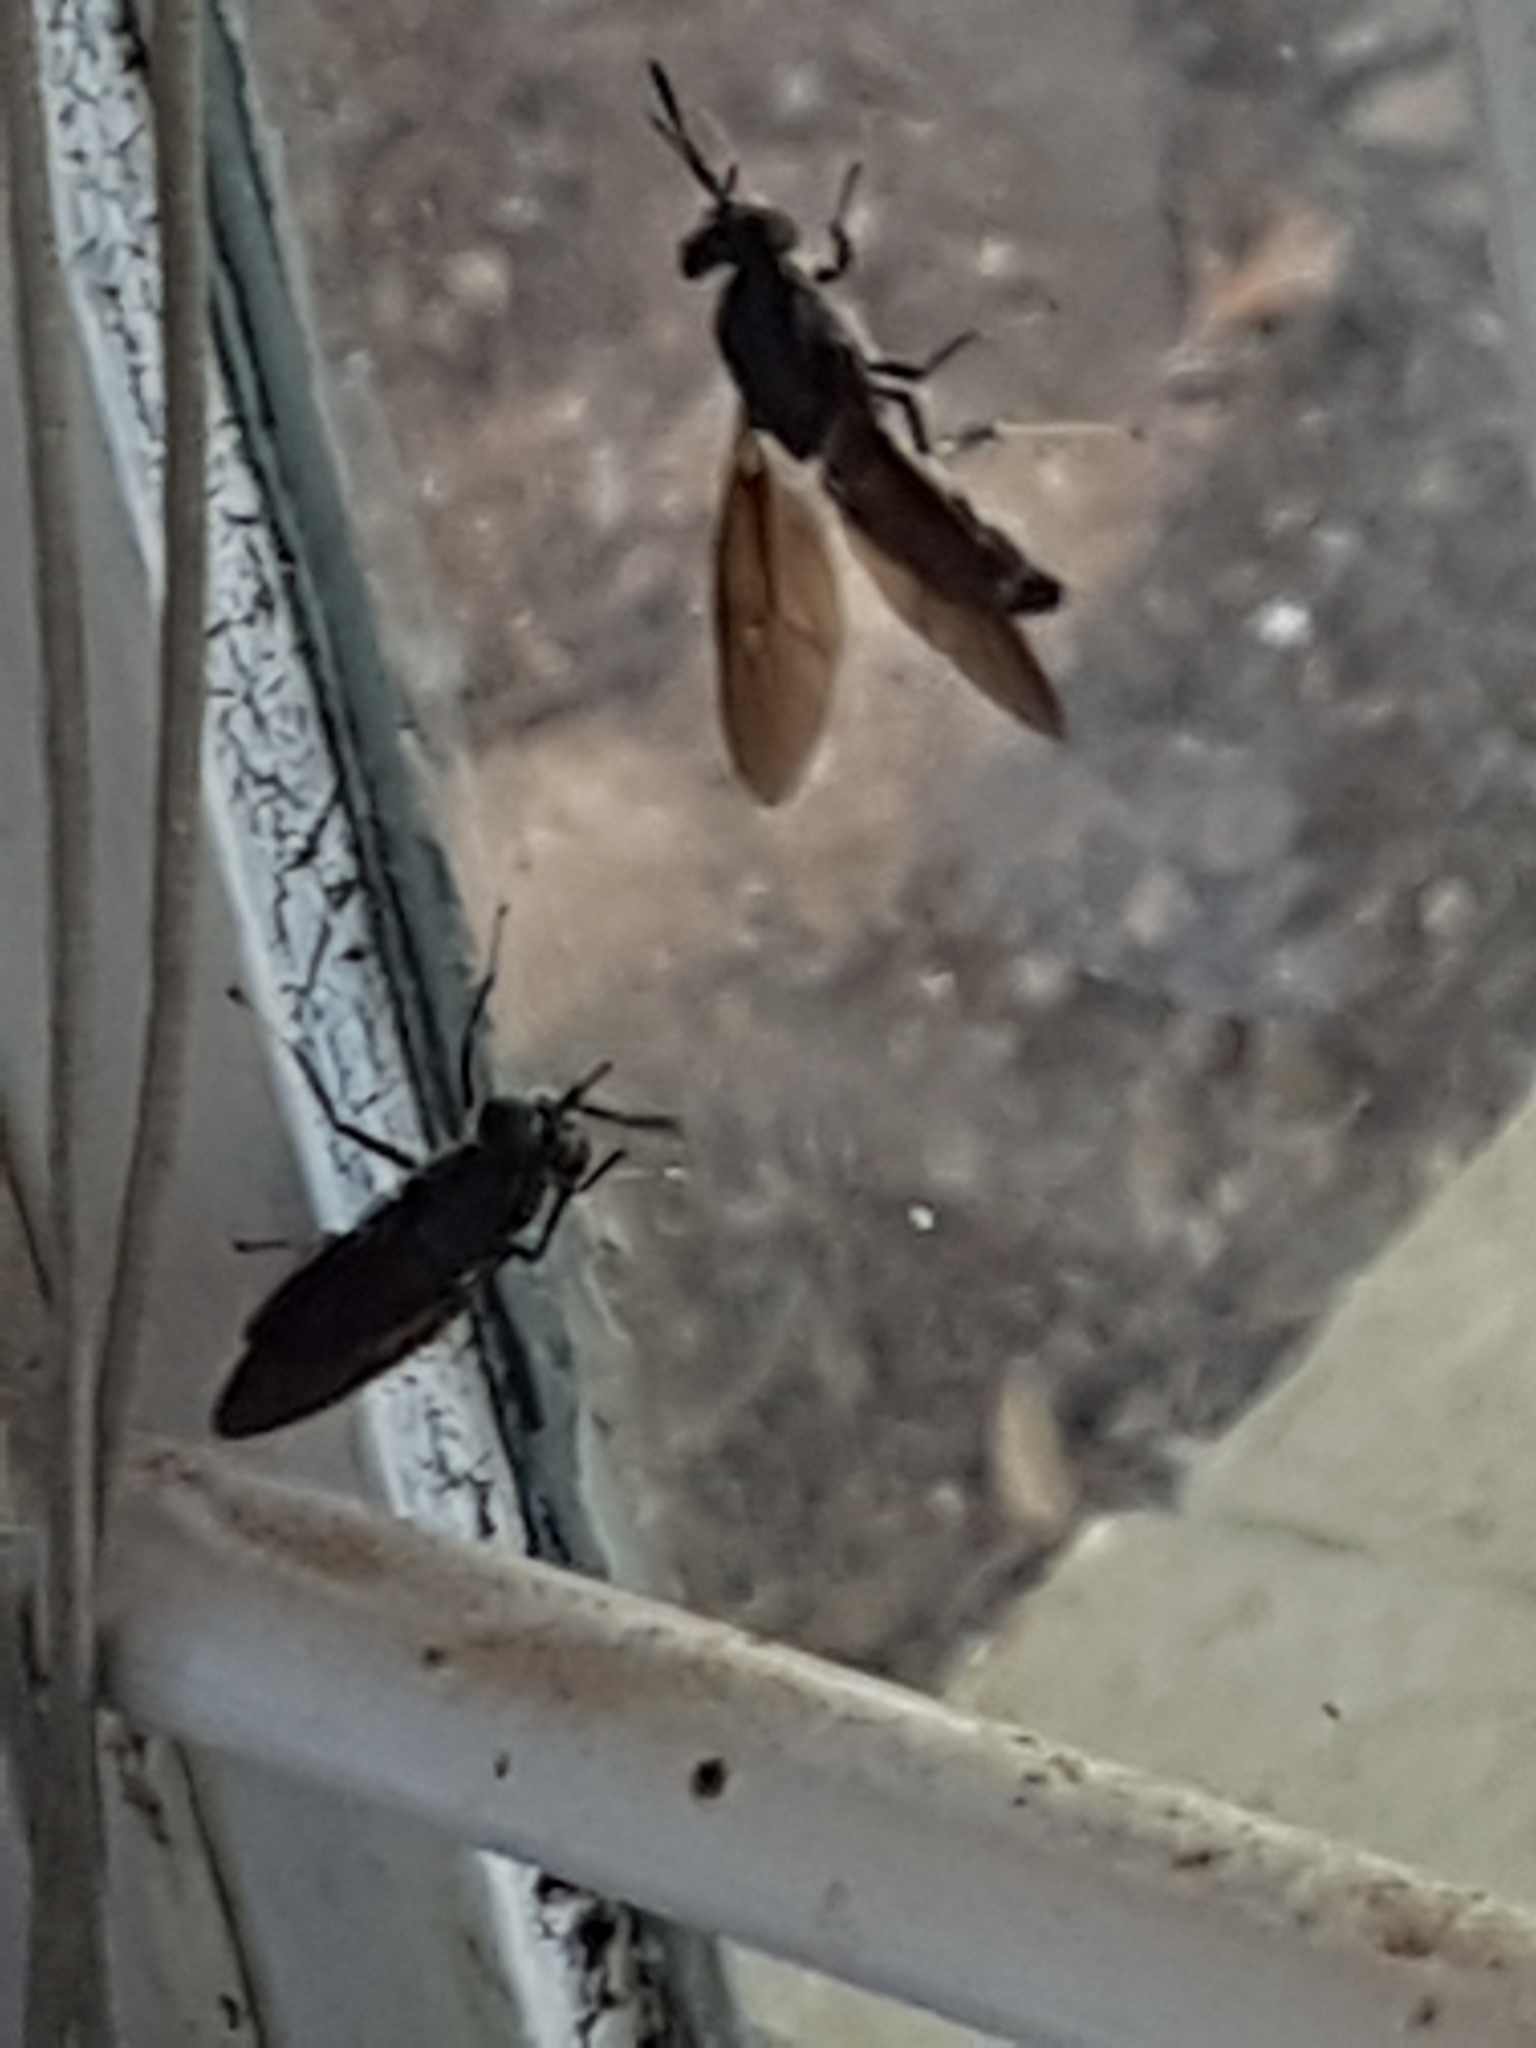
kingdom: Animalia
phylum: Arthropoda
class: Insecta
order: Diptera
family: Stratiomyidae
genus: Hermetia
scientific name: Hermetia illucens
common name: Black soldier fly
